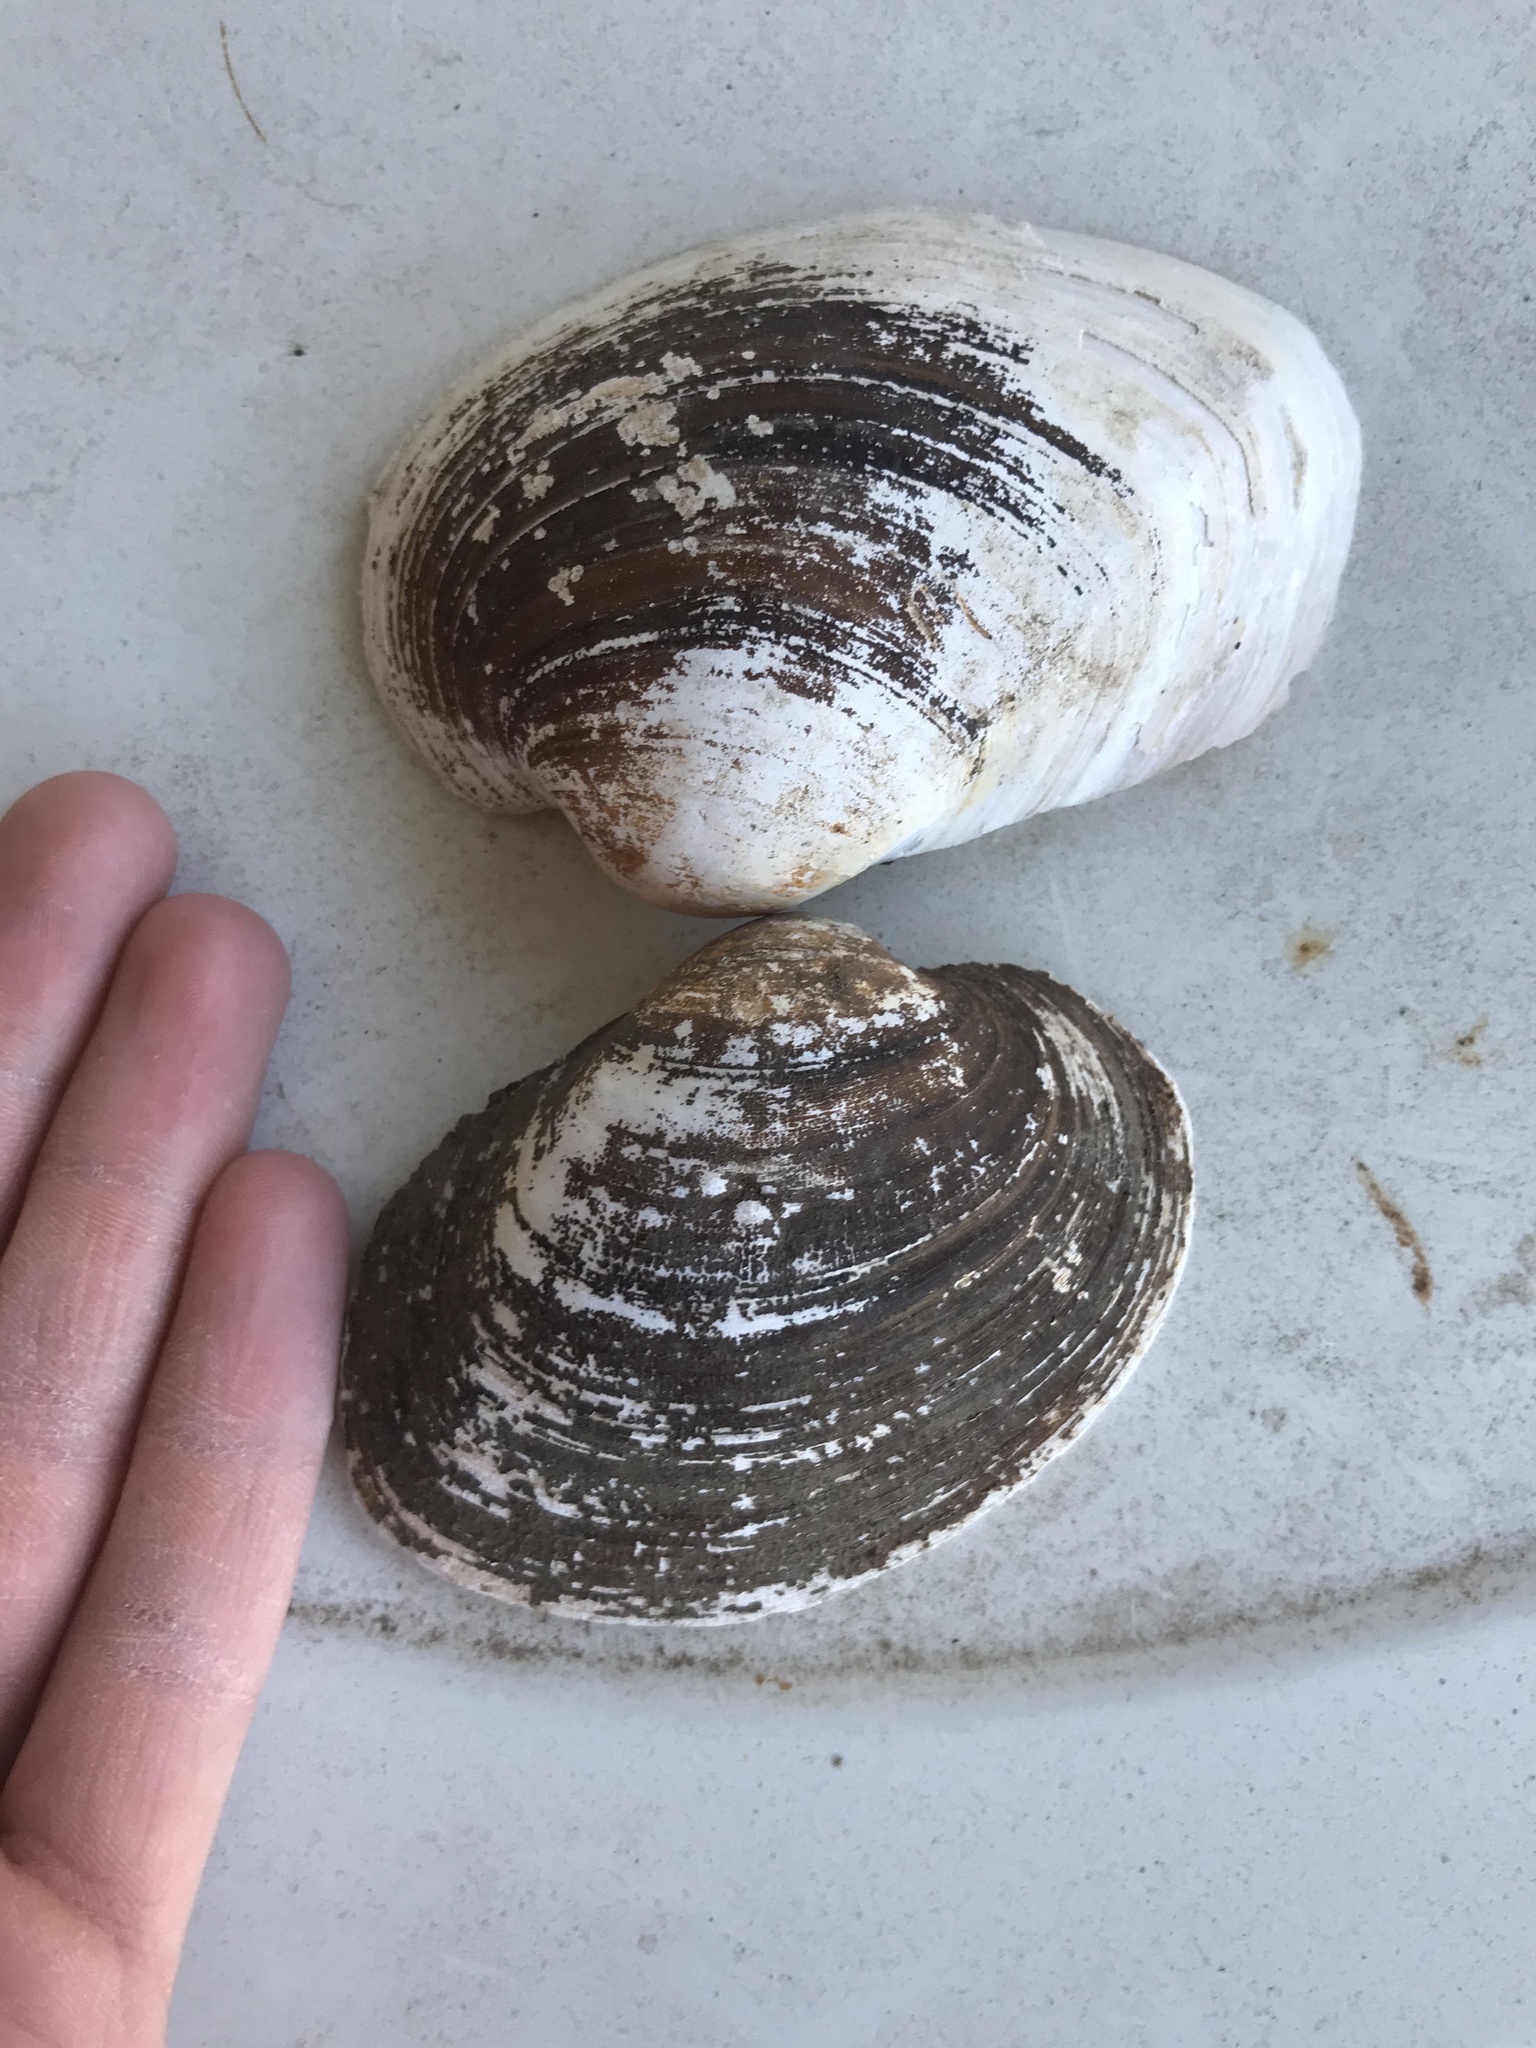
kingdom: Animalia
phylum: Mollusca
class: Bivalvia
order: Unionida
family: Unionidae
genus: Cyrtonaias
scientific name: Cyrtonaias tampicoensis
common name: Tampico pearlymussel
